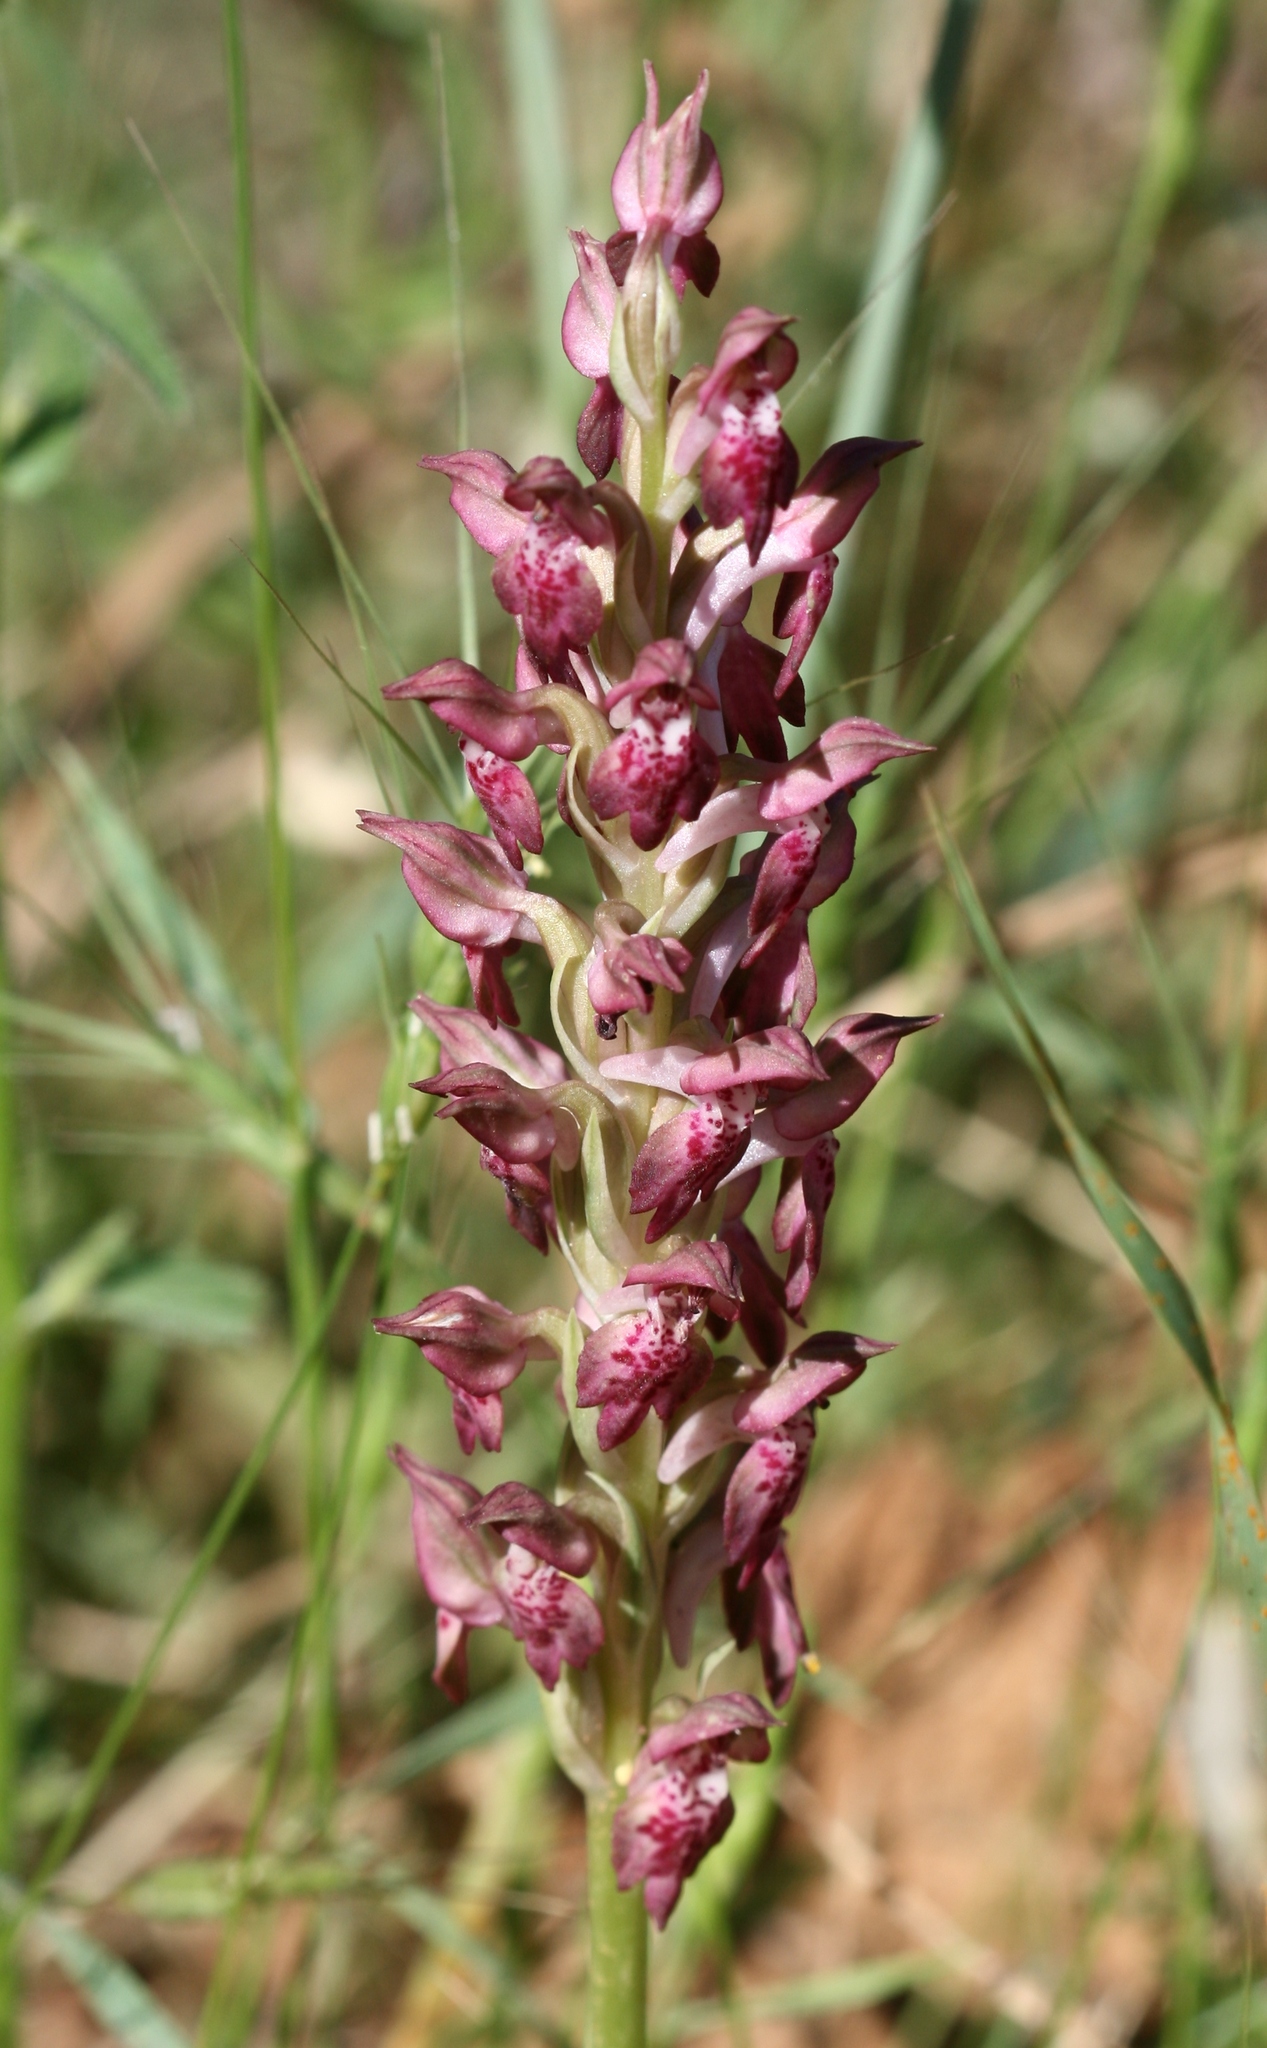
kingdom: Plantae
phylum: Tracheophyta
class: Liliopsida
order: Asparagales
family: Orchidaceae
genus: Anacamptis
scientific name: Anacamptis coriophora
